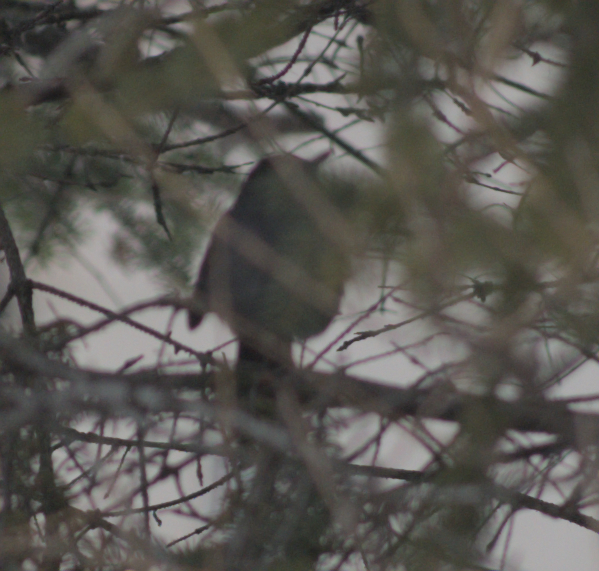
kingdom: Animalia
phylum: Chordata
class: Aves
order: Passeriformes
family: Mimidae
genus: Dumetella
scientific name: Dumetella carolinensis
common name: Gray catbird
